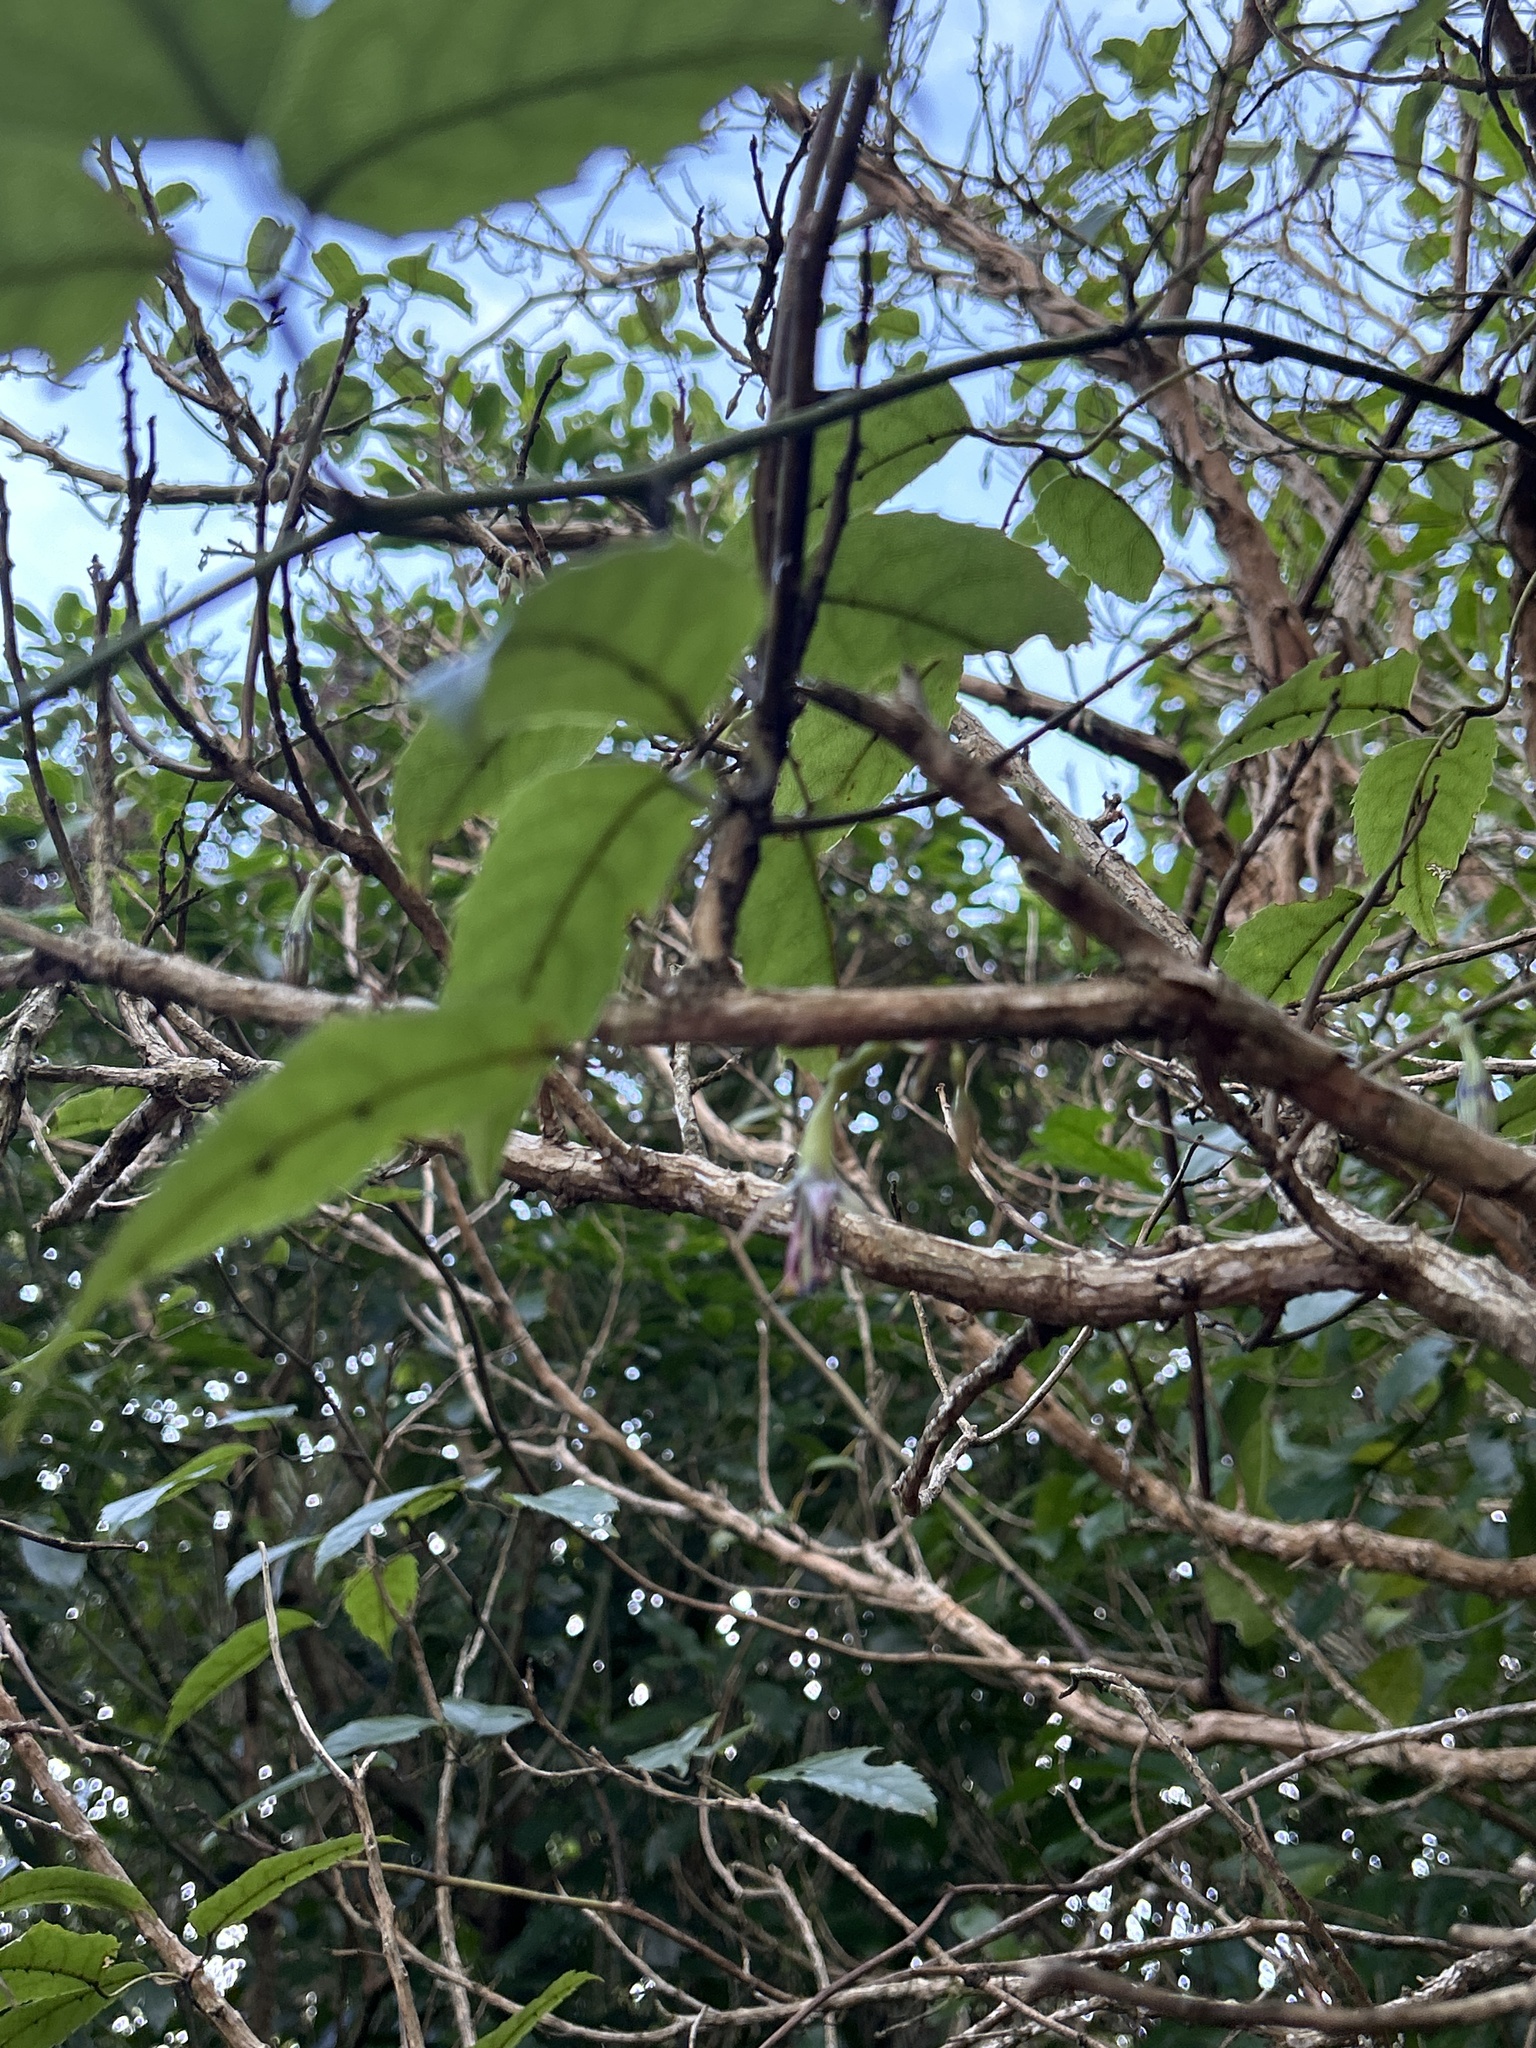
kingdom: Plantae
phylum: Tracheophyta
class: Magnoliopsida
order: Myrtales
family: Onagraceae
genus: Fuchsia
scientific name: Fuchsia excorticata
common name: Tree fuchsia
